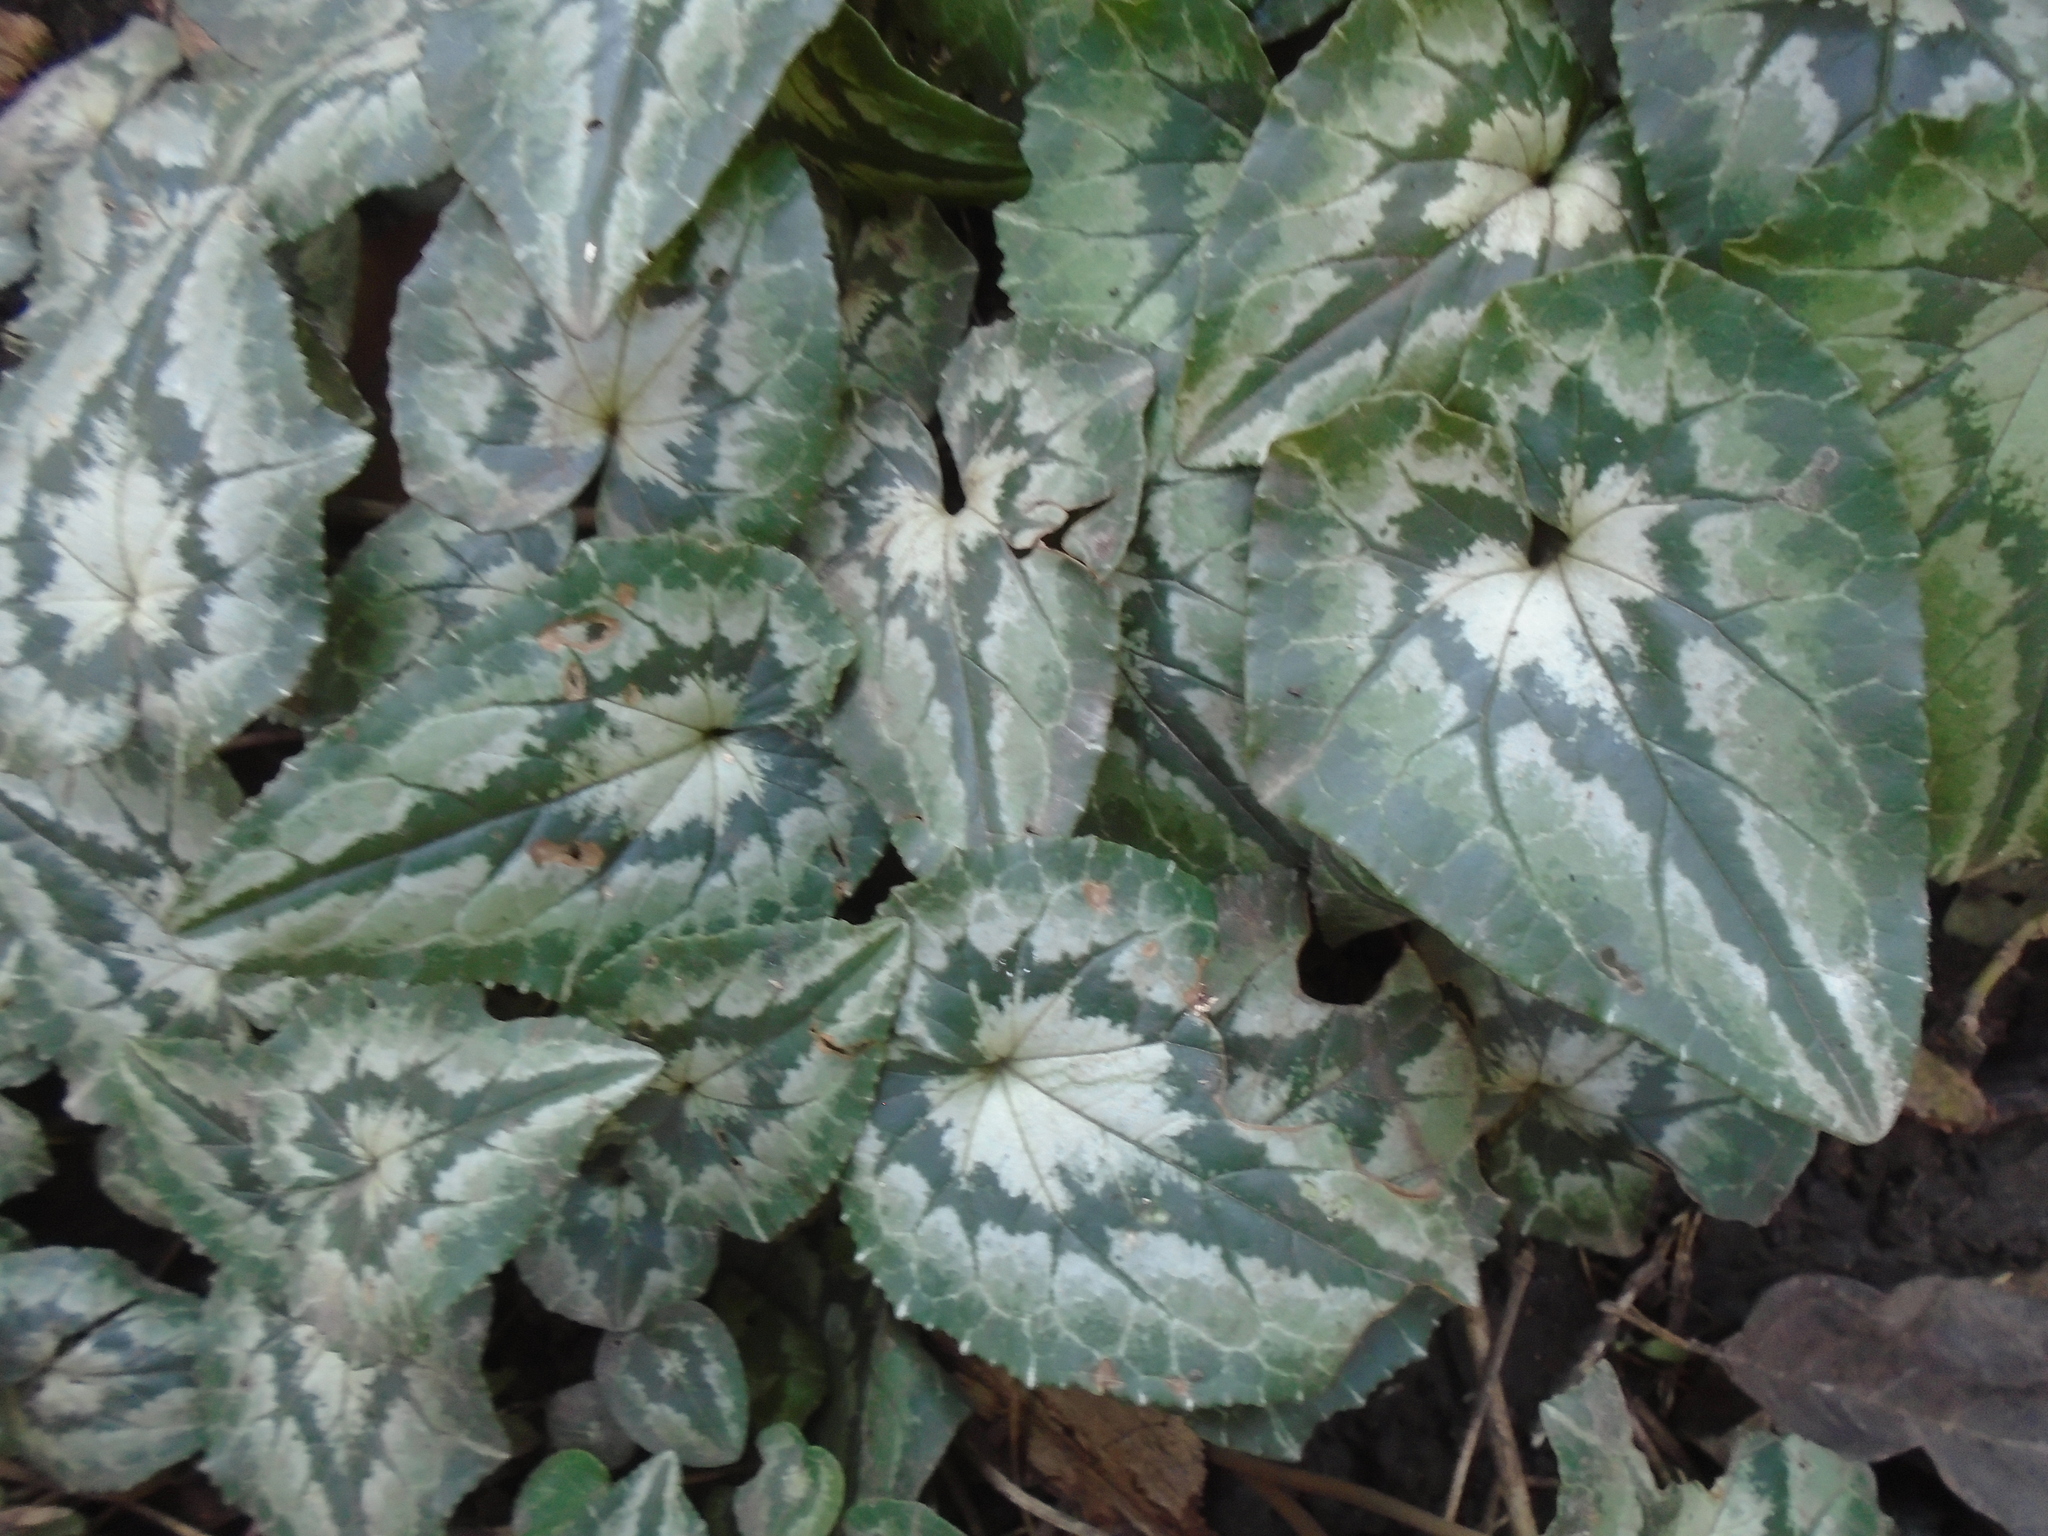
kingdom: Plantae
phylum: Tracheophyta
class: Magnoliopsida
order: Ericales
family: Primulaceae
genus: Cyclamen
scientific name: Cyclamen hederifolium
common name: Sowbread
